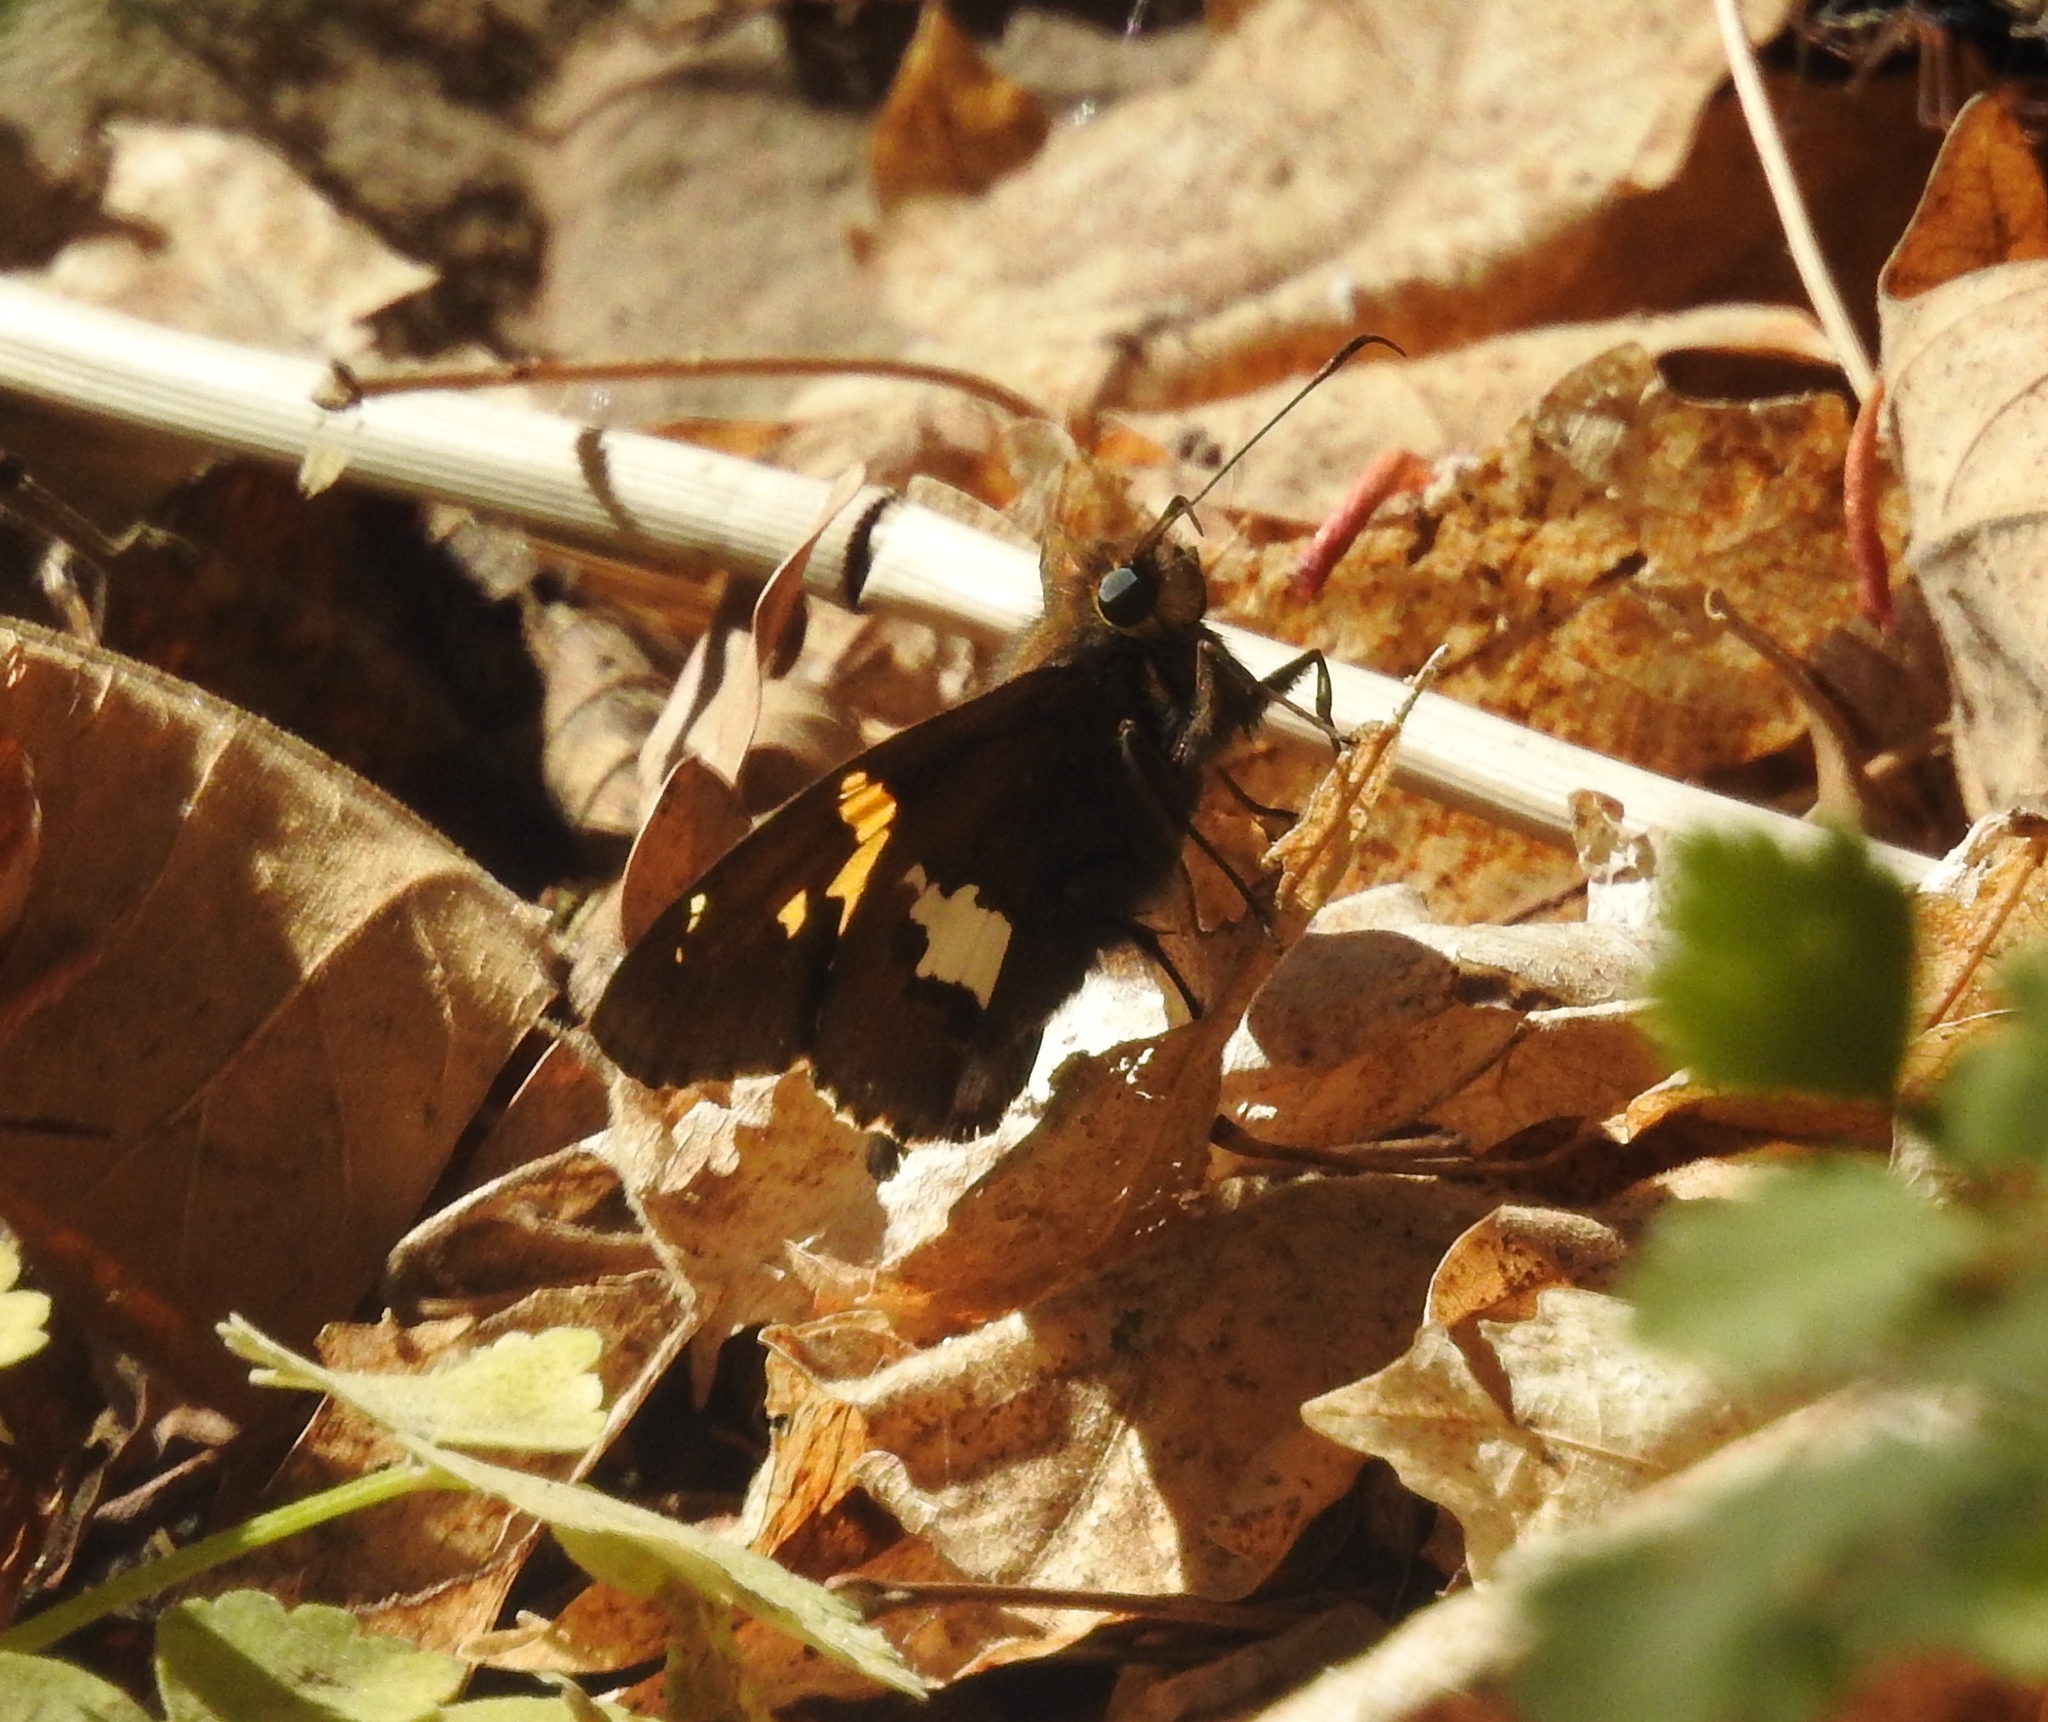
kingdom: Animalia
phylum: Arthropoda
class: Insecta
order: Lepidoptera
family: Hesperiidae
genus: Epargyreus
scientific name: Epargyreus clarus
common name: Silver-spotted skipper
